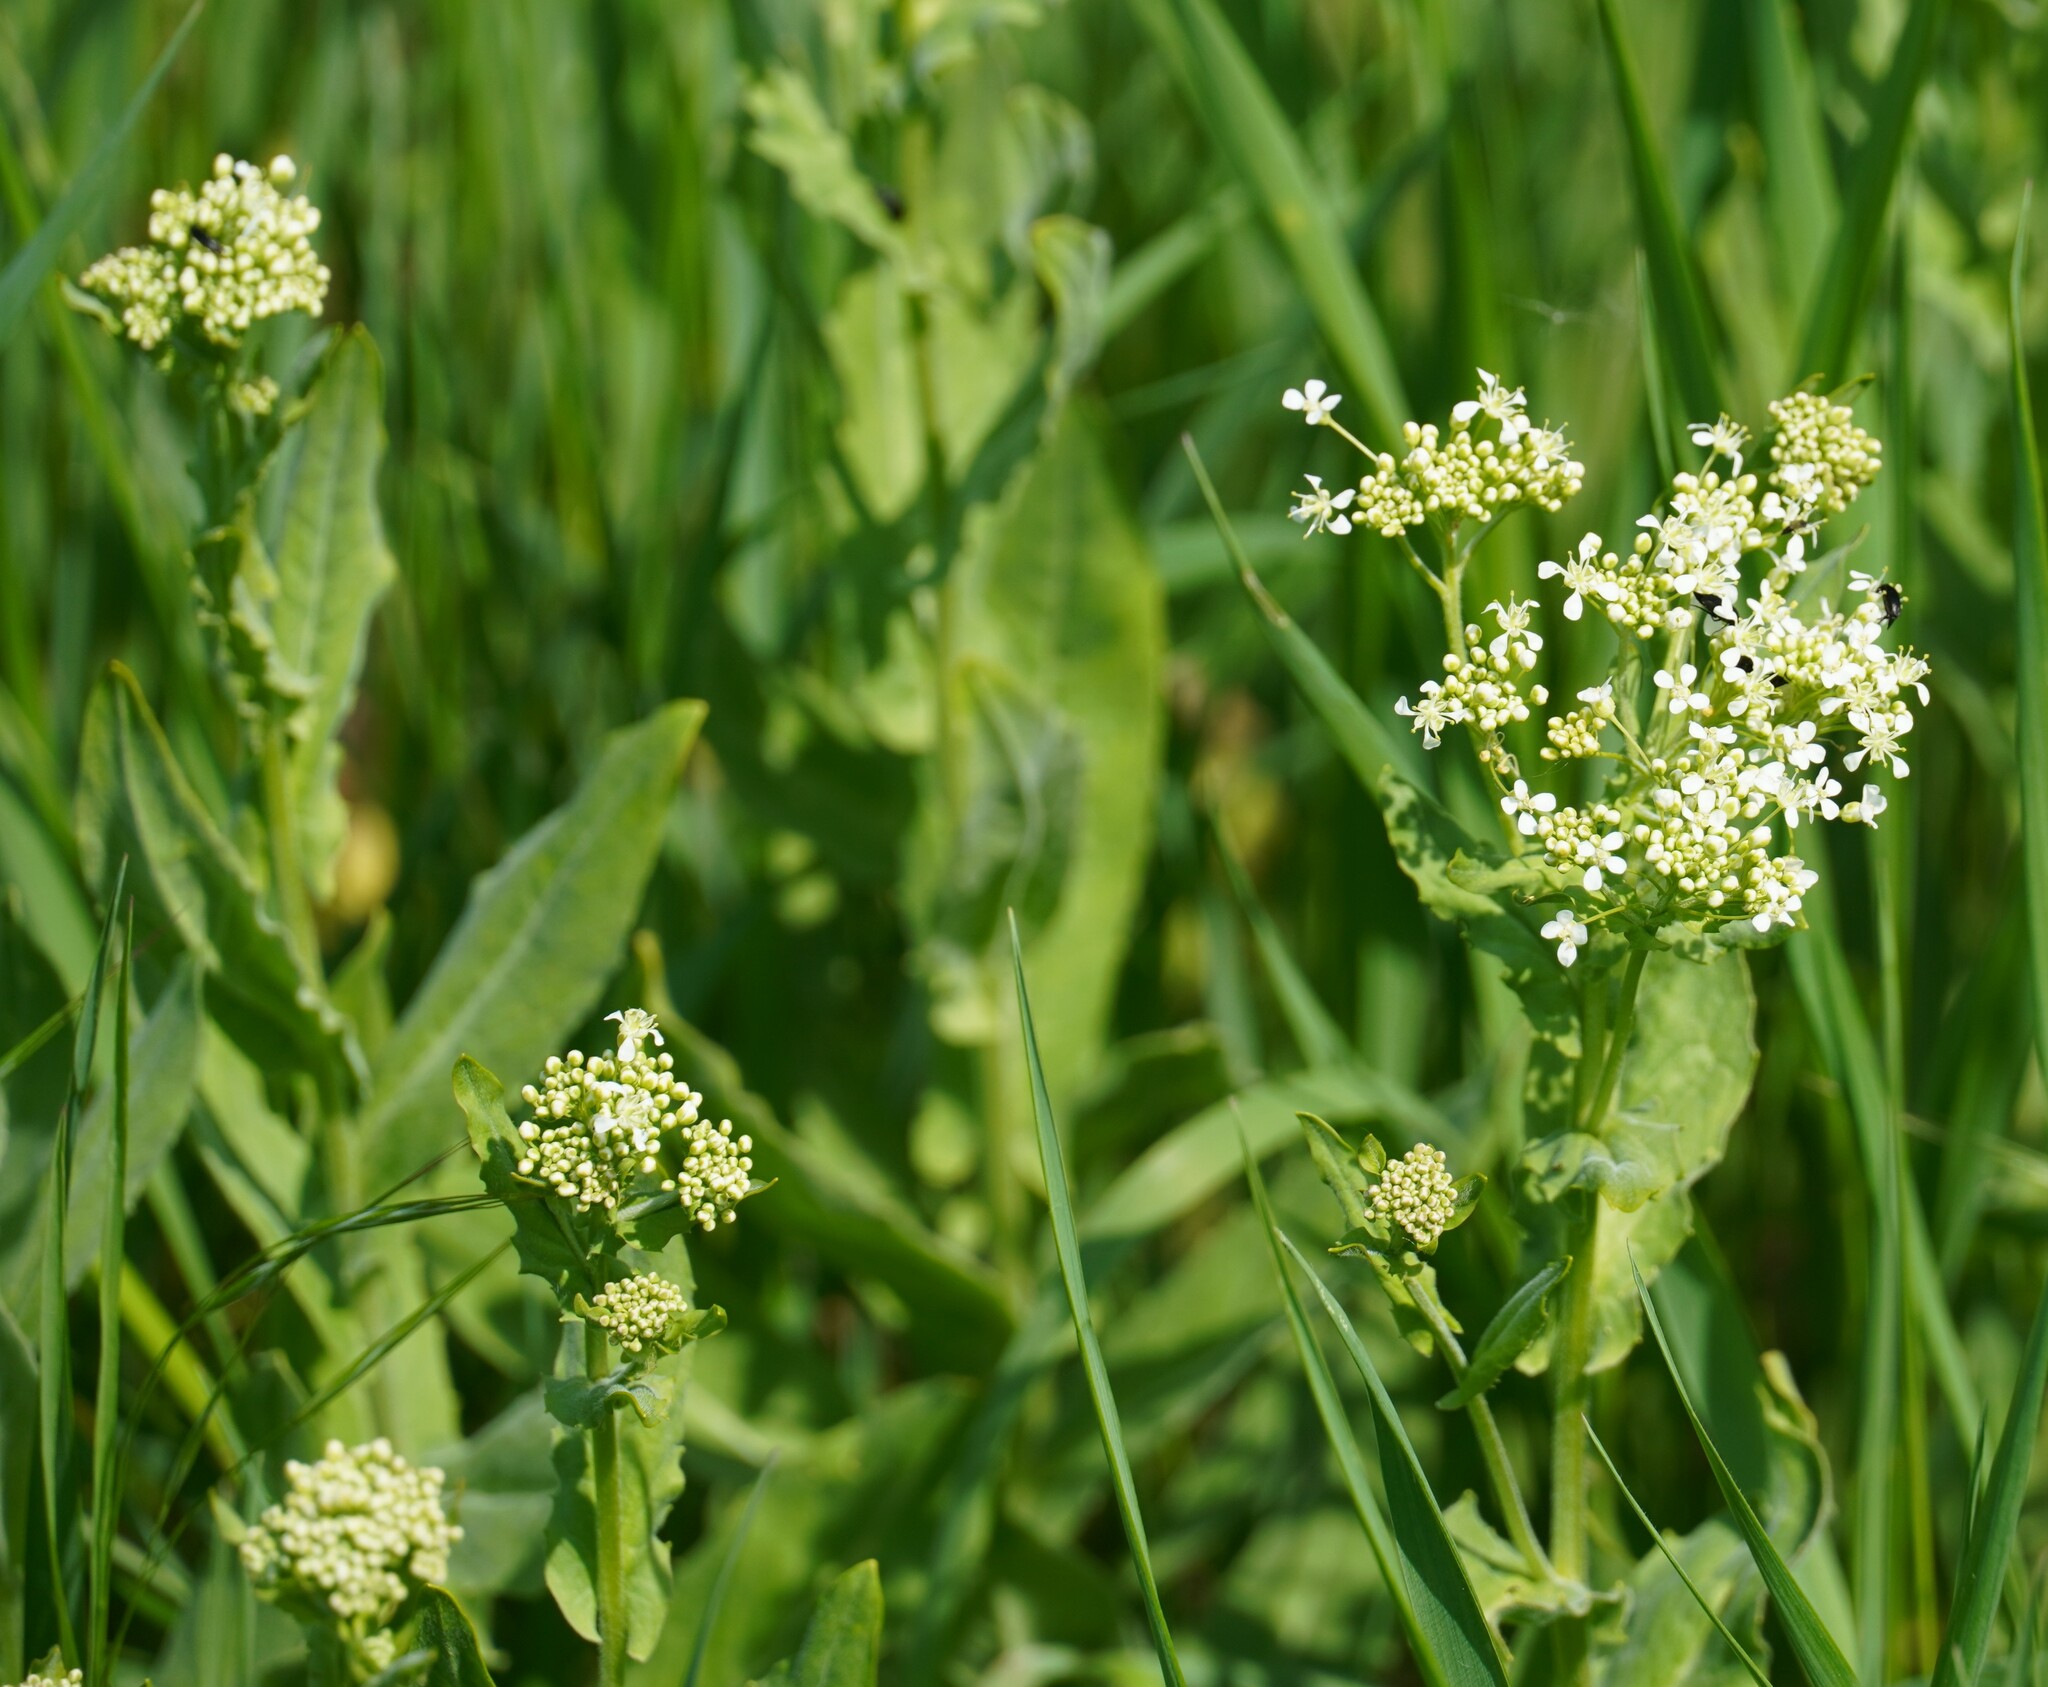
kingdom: Plantae
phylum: Tracheophyta
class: Magnoliopsida
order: Brassicales
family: Brassicaceae
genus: Lepidium
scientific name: Lepidium draba
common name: Hoary cress
